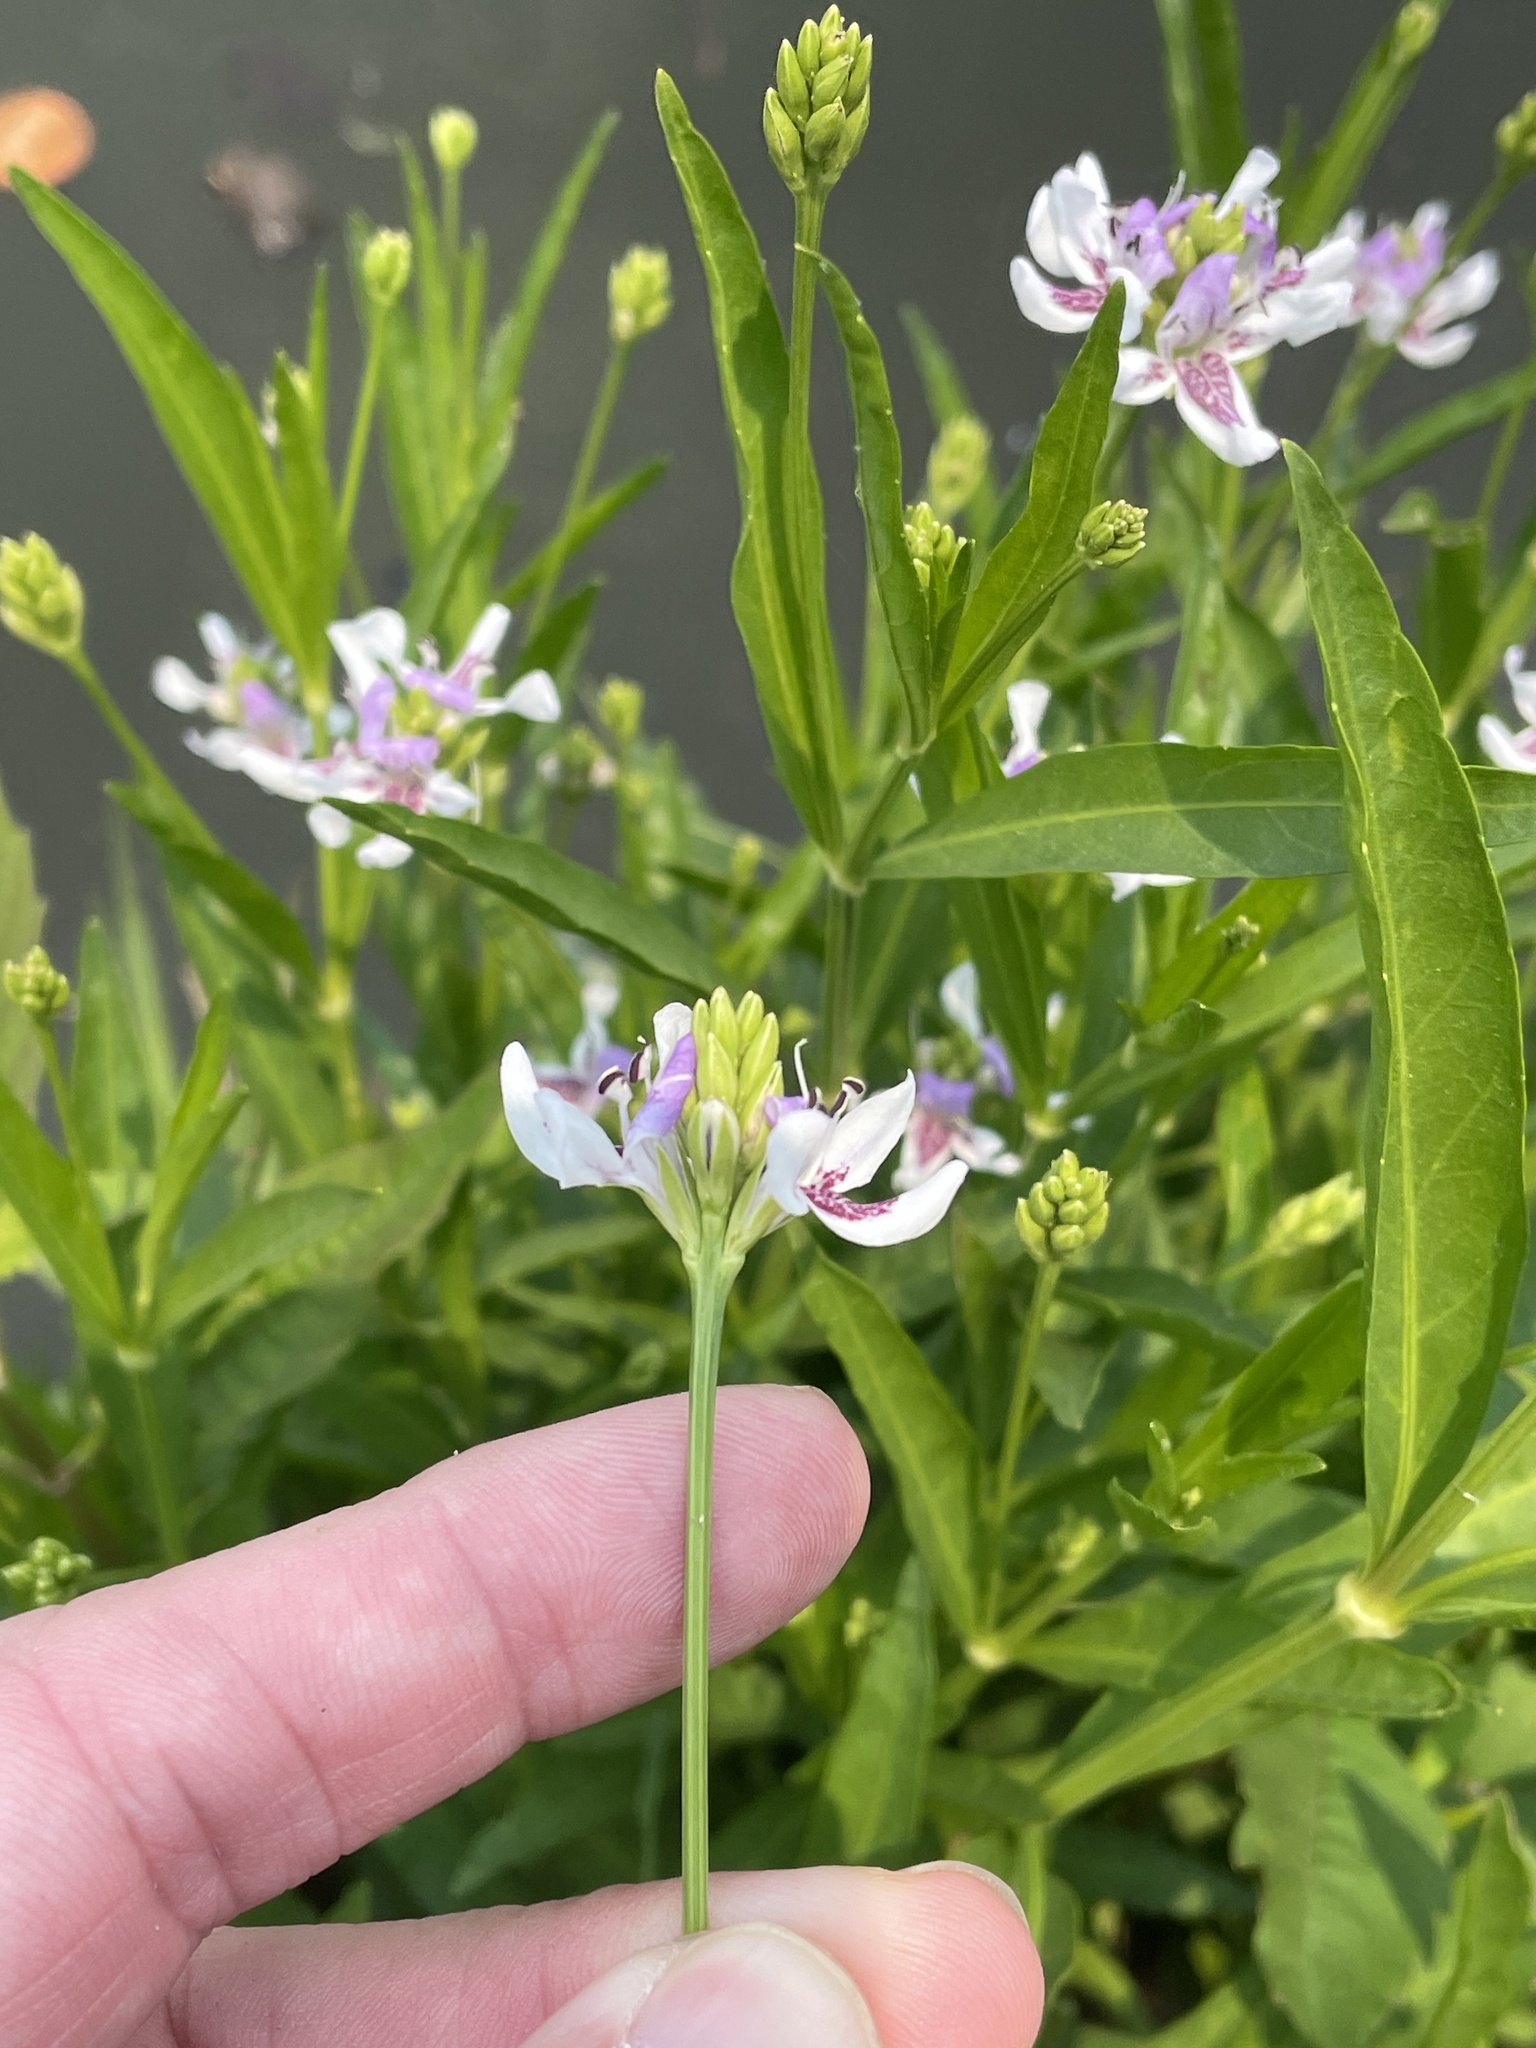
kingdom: Plantae
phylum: Tracheophyta
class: Magnoliopsida
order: Lamiales
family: Acanthaceae
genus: Dianthera
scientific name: Dianthera americana
